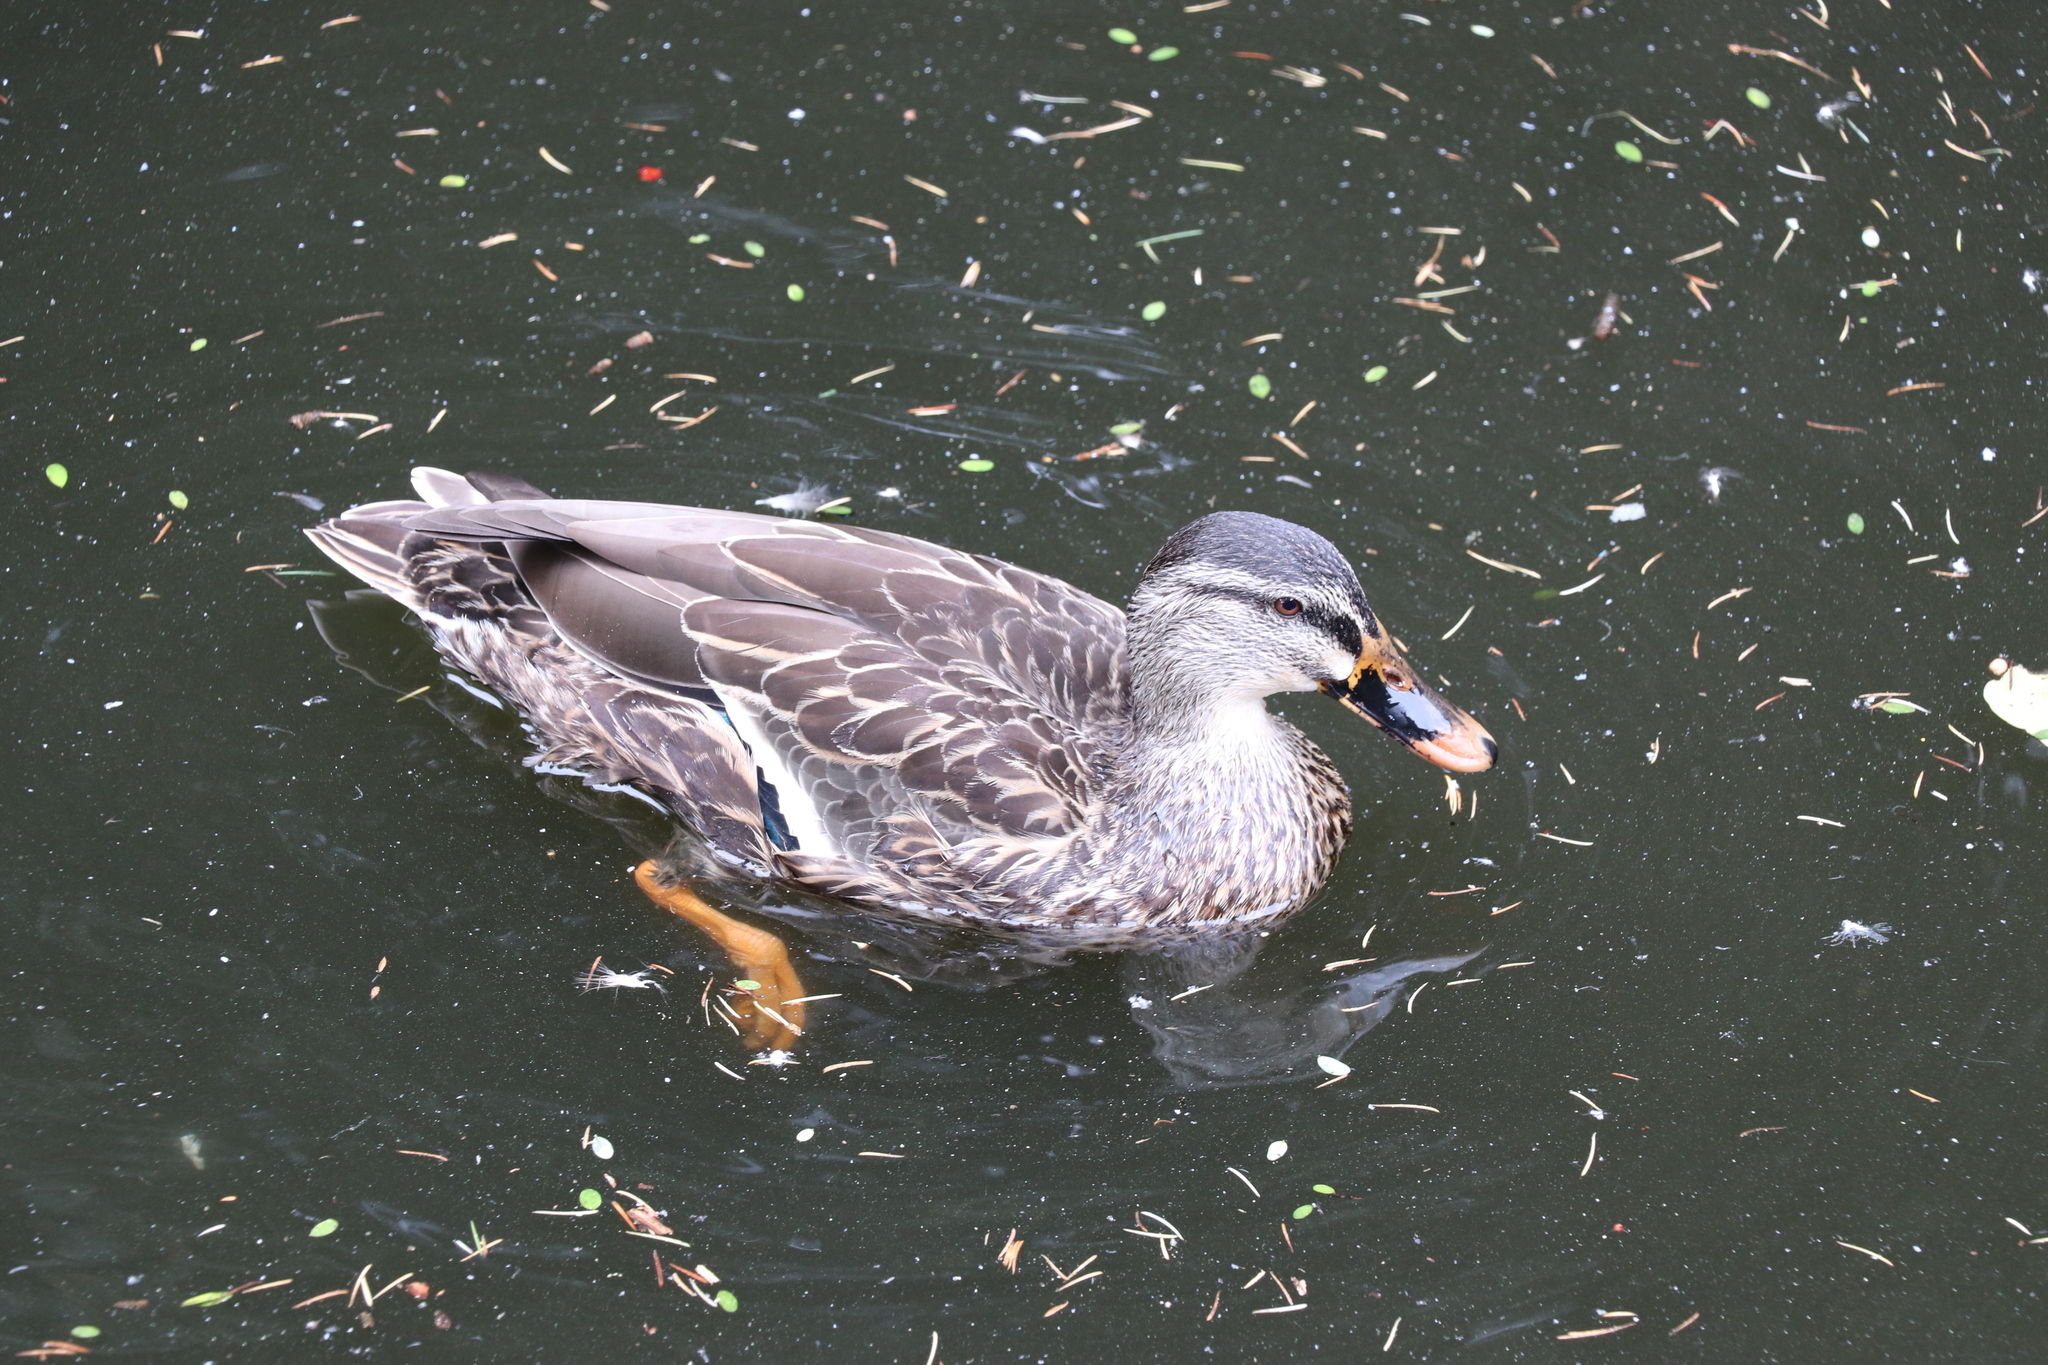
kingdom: Animalia
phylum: Chordata
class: Aves
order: Anseriformes
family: Anatidae
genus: Anas
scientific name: Anas platyrhynchos
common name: Mallard
